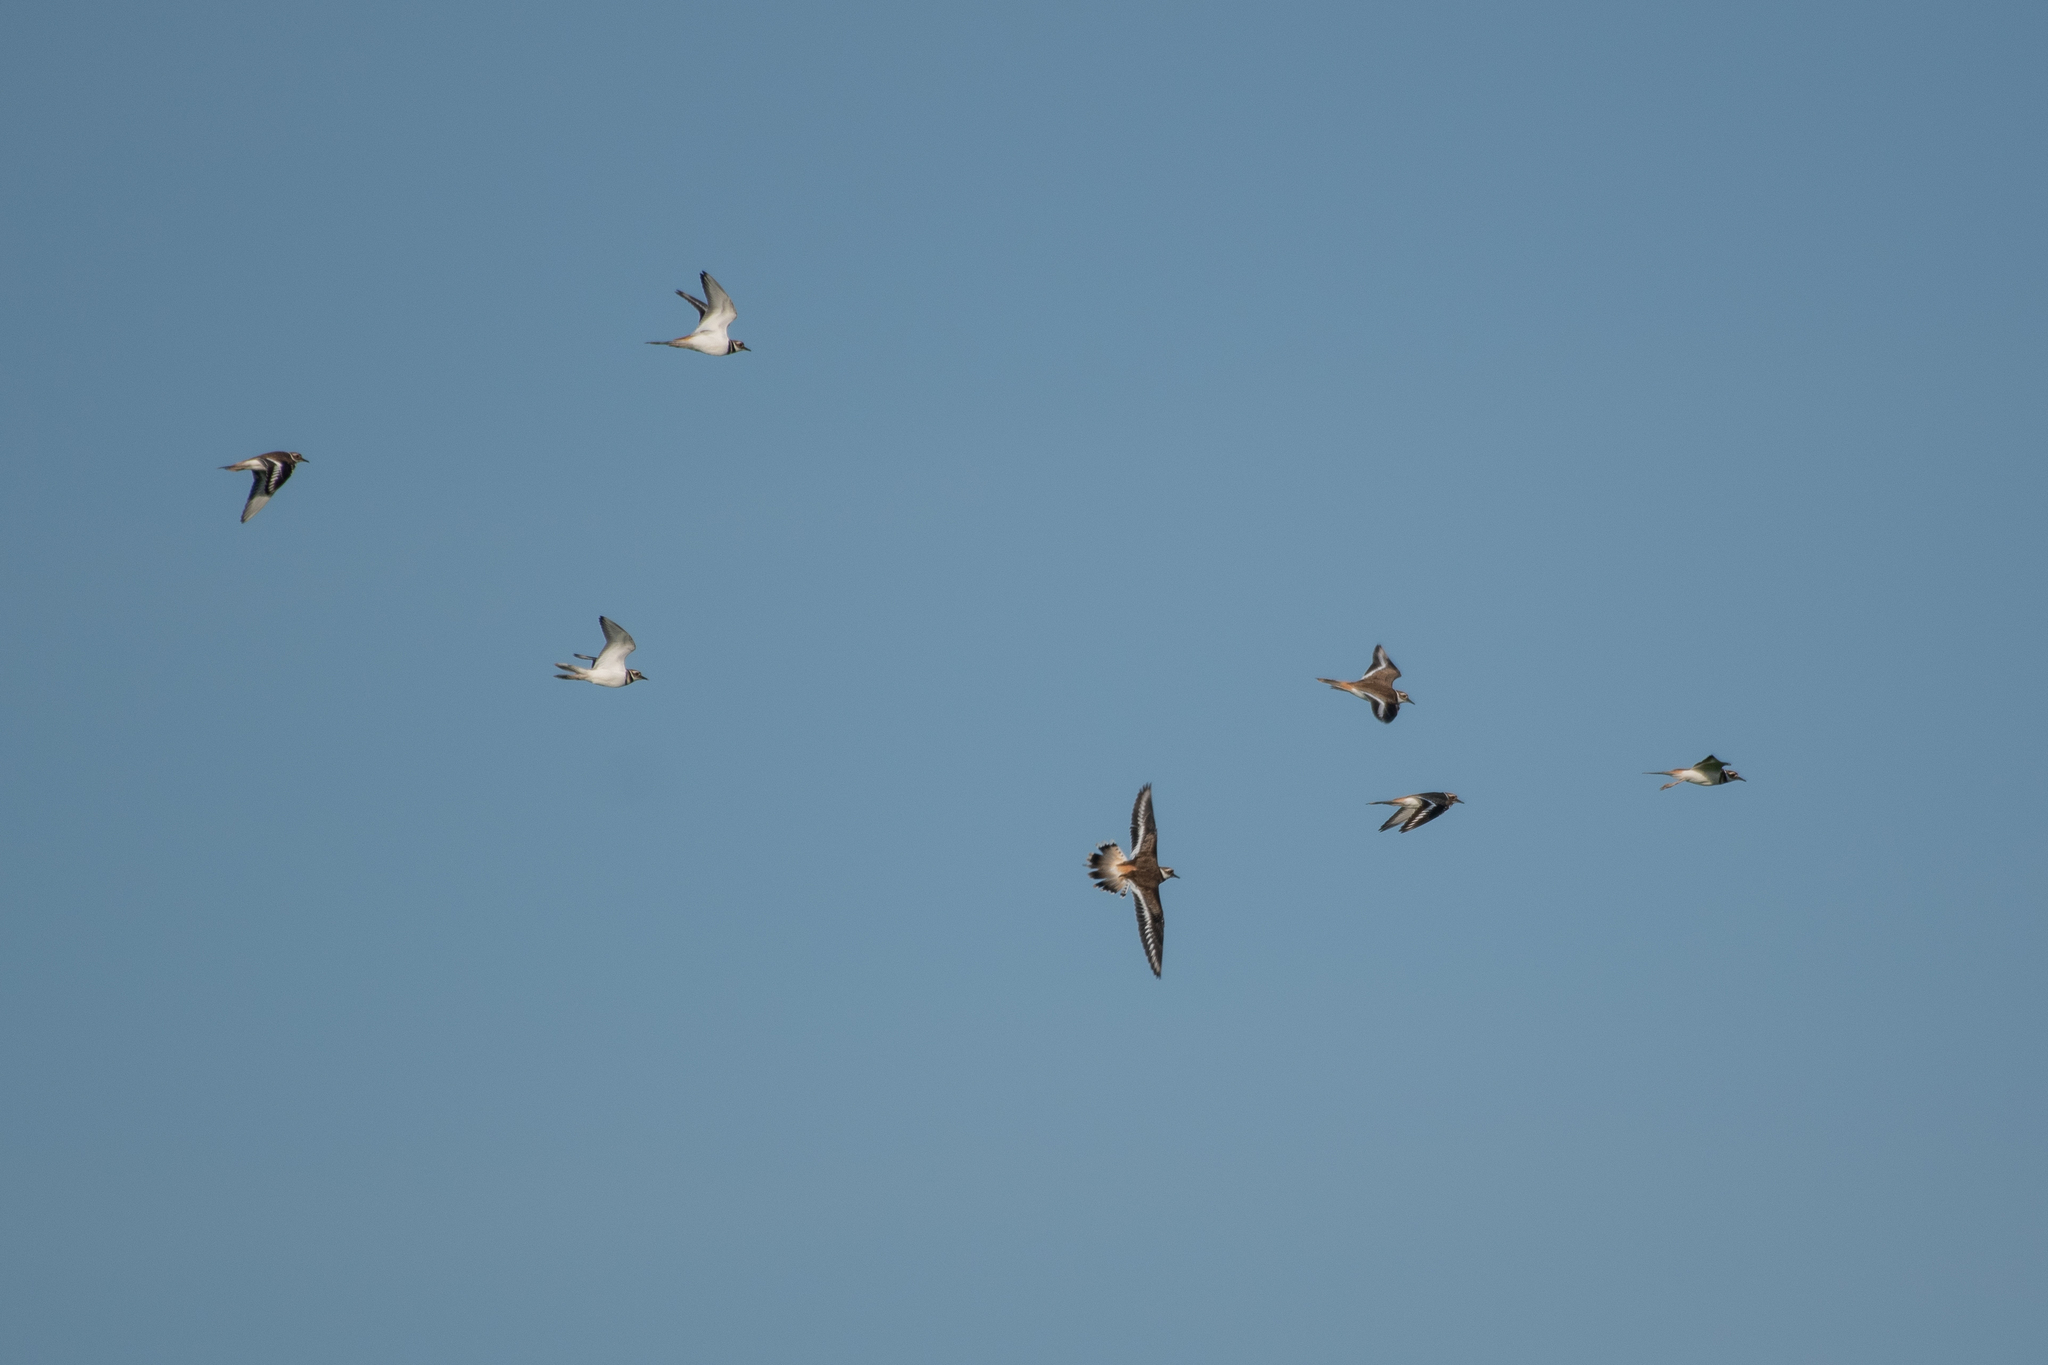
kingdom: Animalia
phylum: Chordata
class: Aves
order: Charadriiformes
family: Charadriidae
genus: Charadrius
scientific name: Charadrius vociferus
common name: Killdeer
